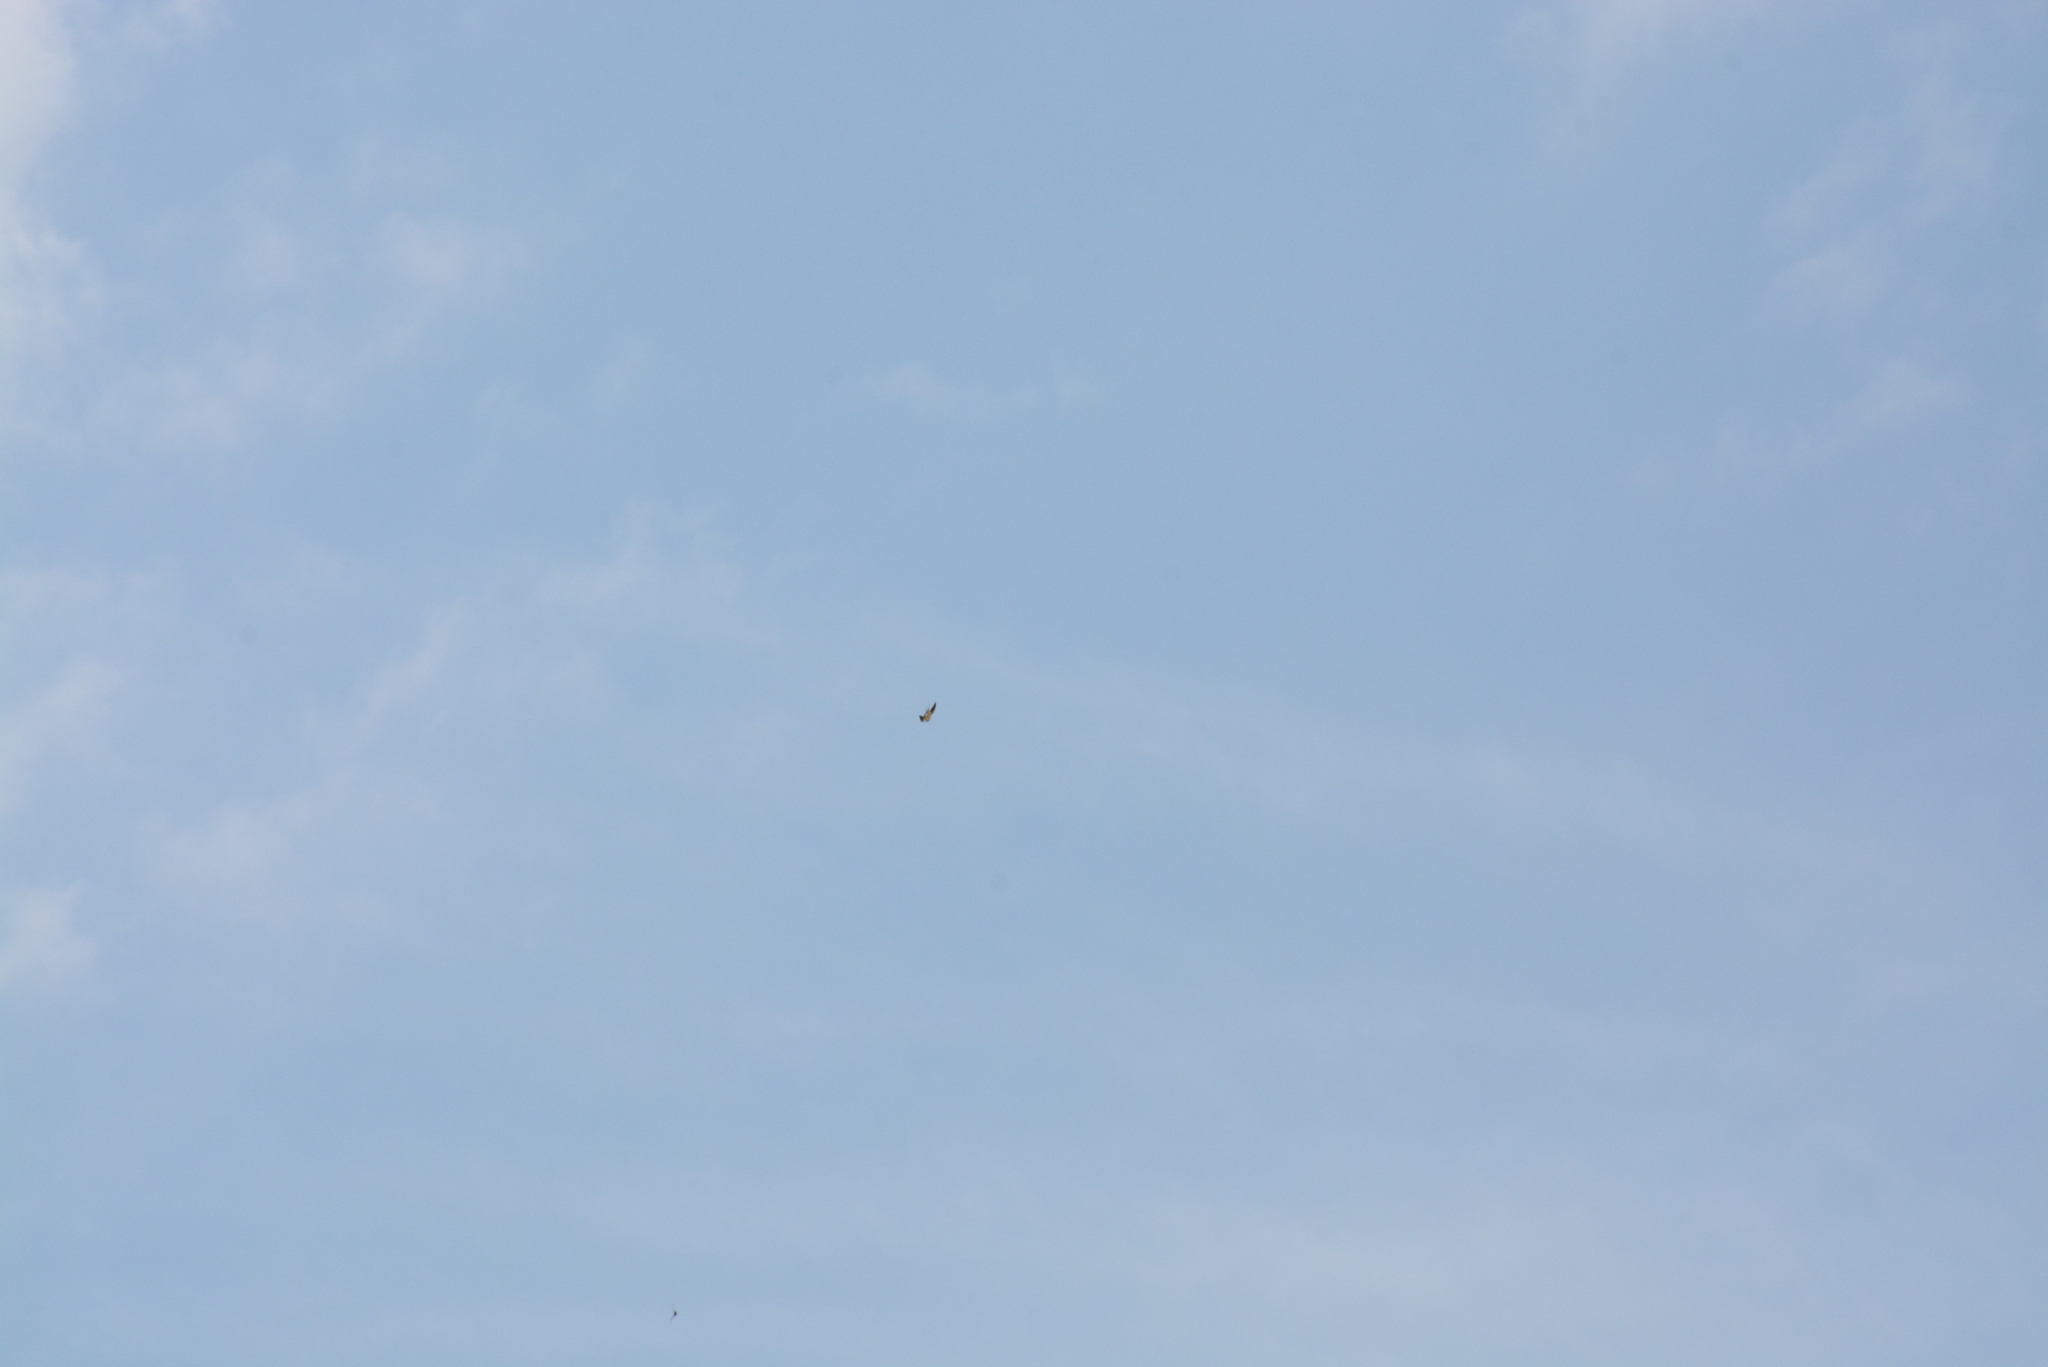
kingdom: Animalia
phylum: Chordata
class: Aves
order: Passeriformes
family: Hirundinidae
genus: Hirundo
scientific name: Hirundo rustica
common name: Barn swallow
